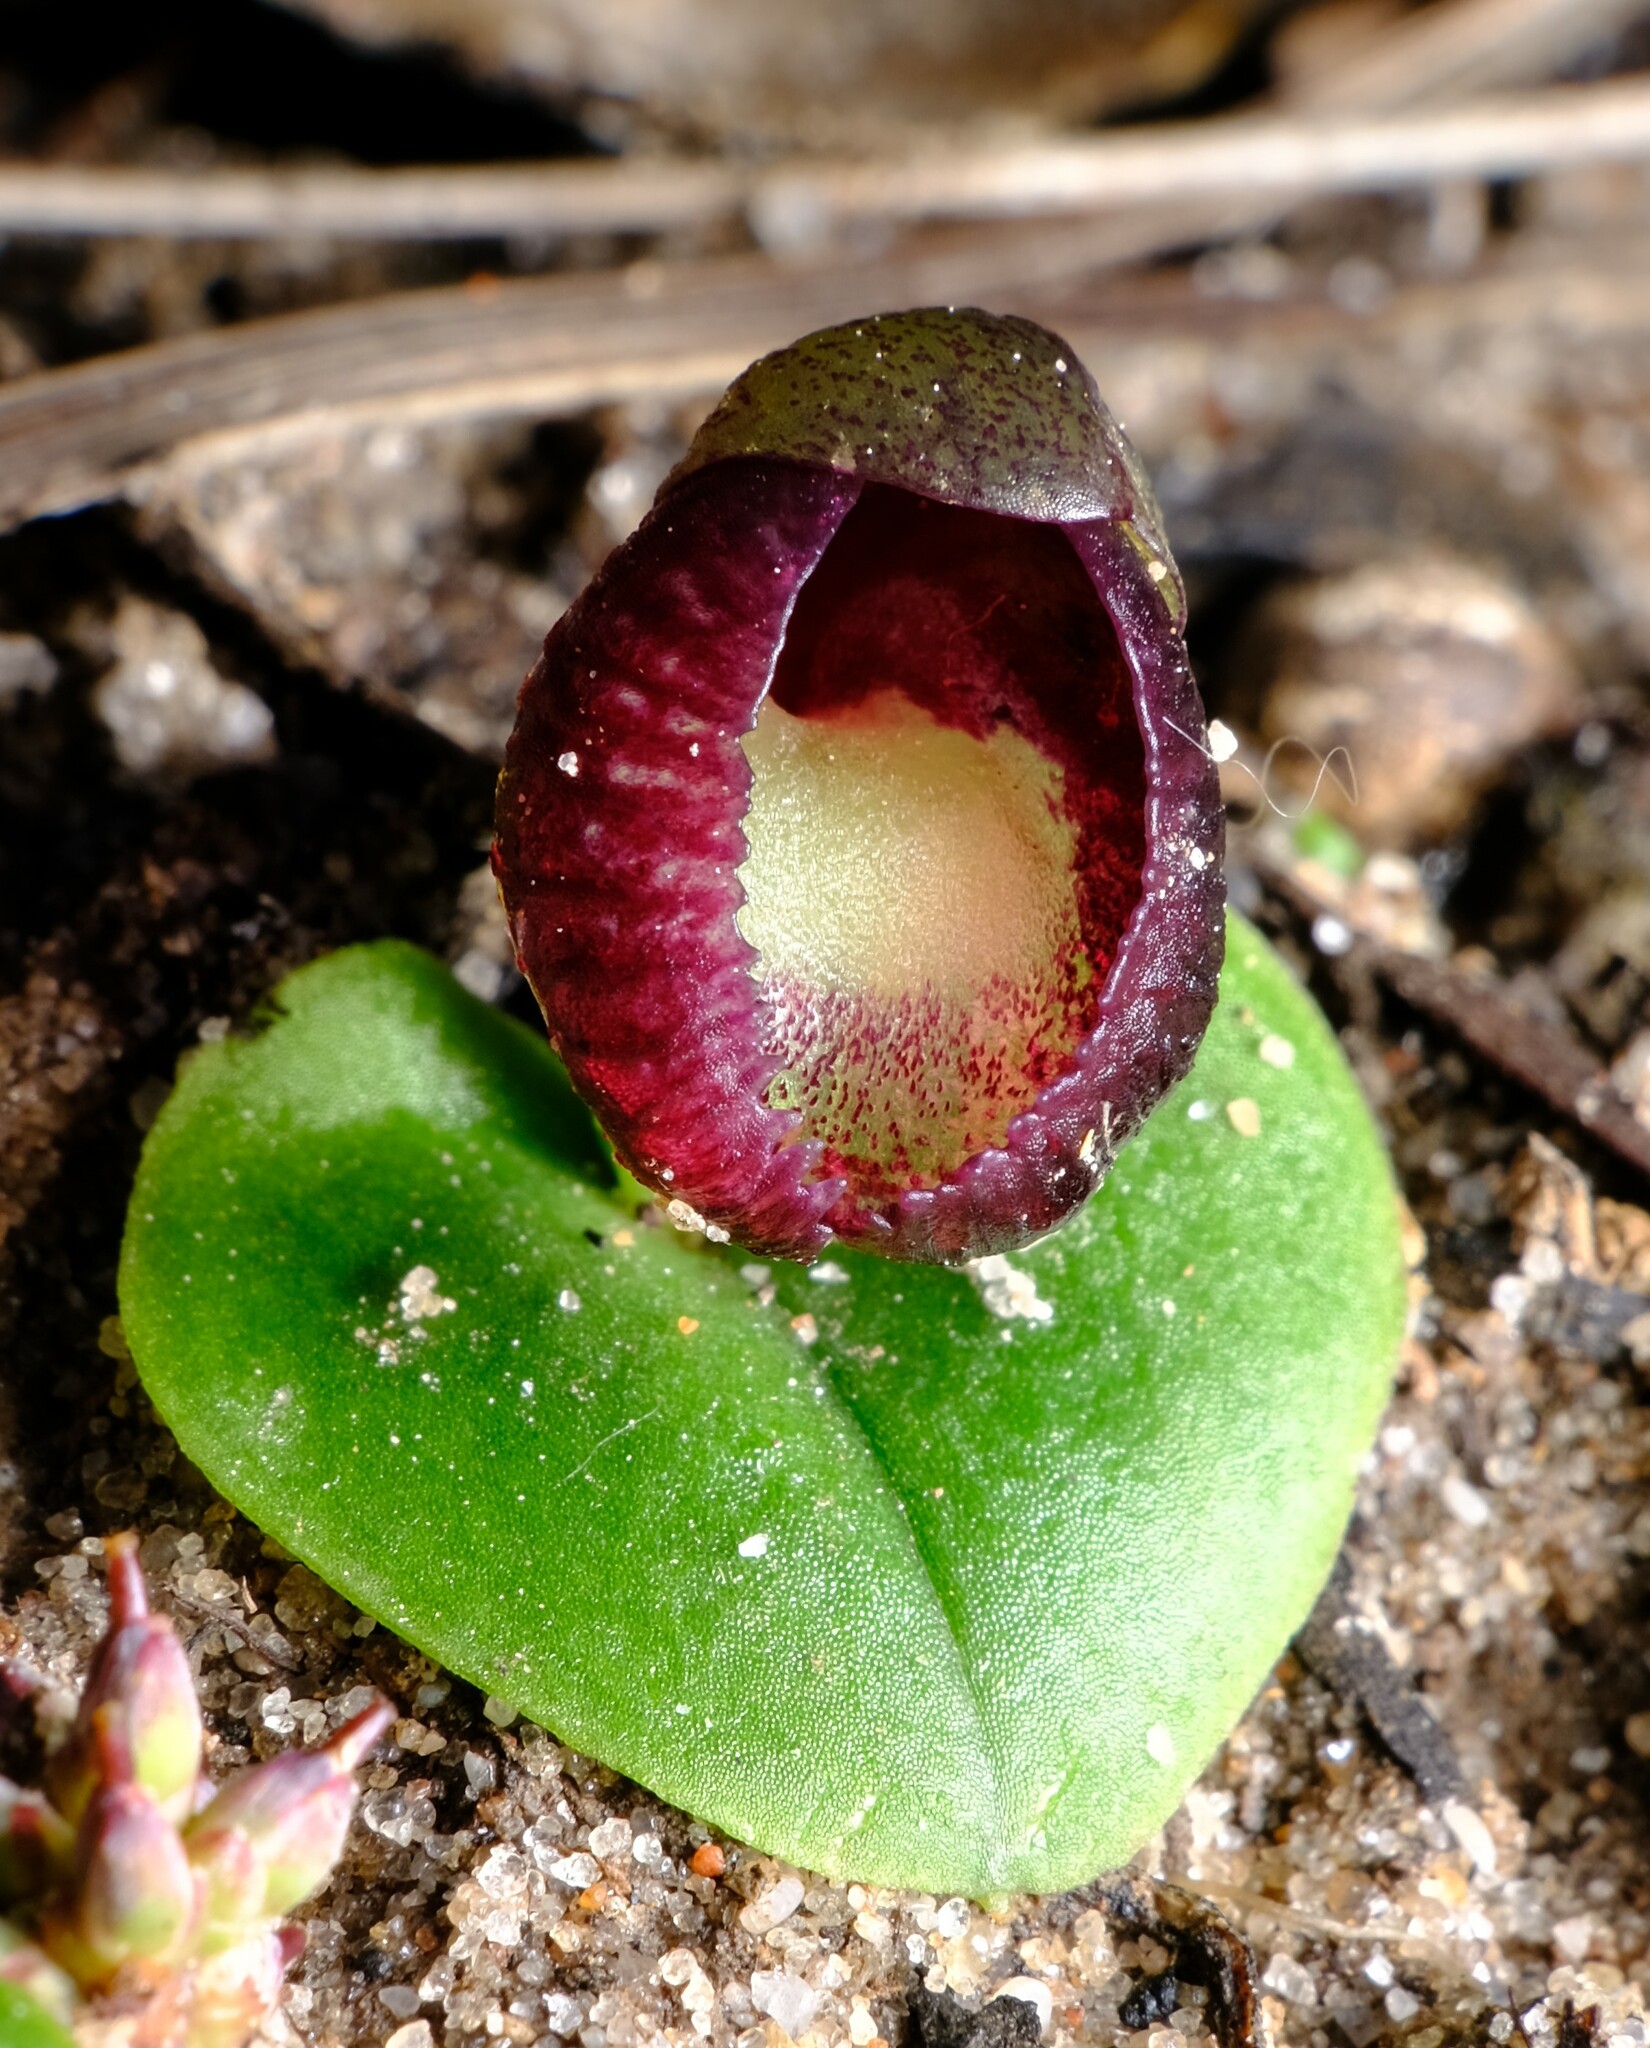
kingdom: Plantae
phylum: Tracheophyta
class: Liliopsida
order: Asparagales
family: Orchidaceae
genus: Corybas
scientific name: Corybas incurvus
